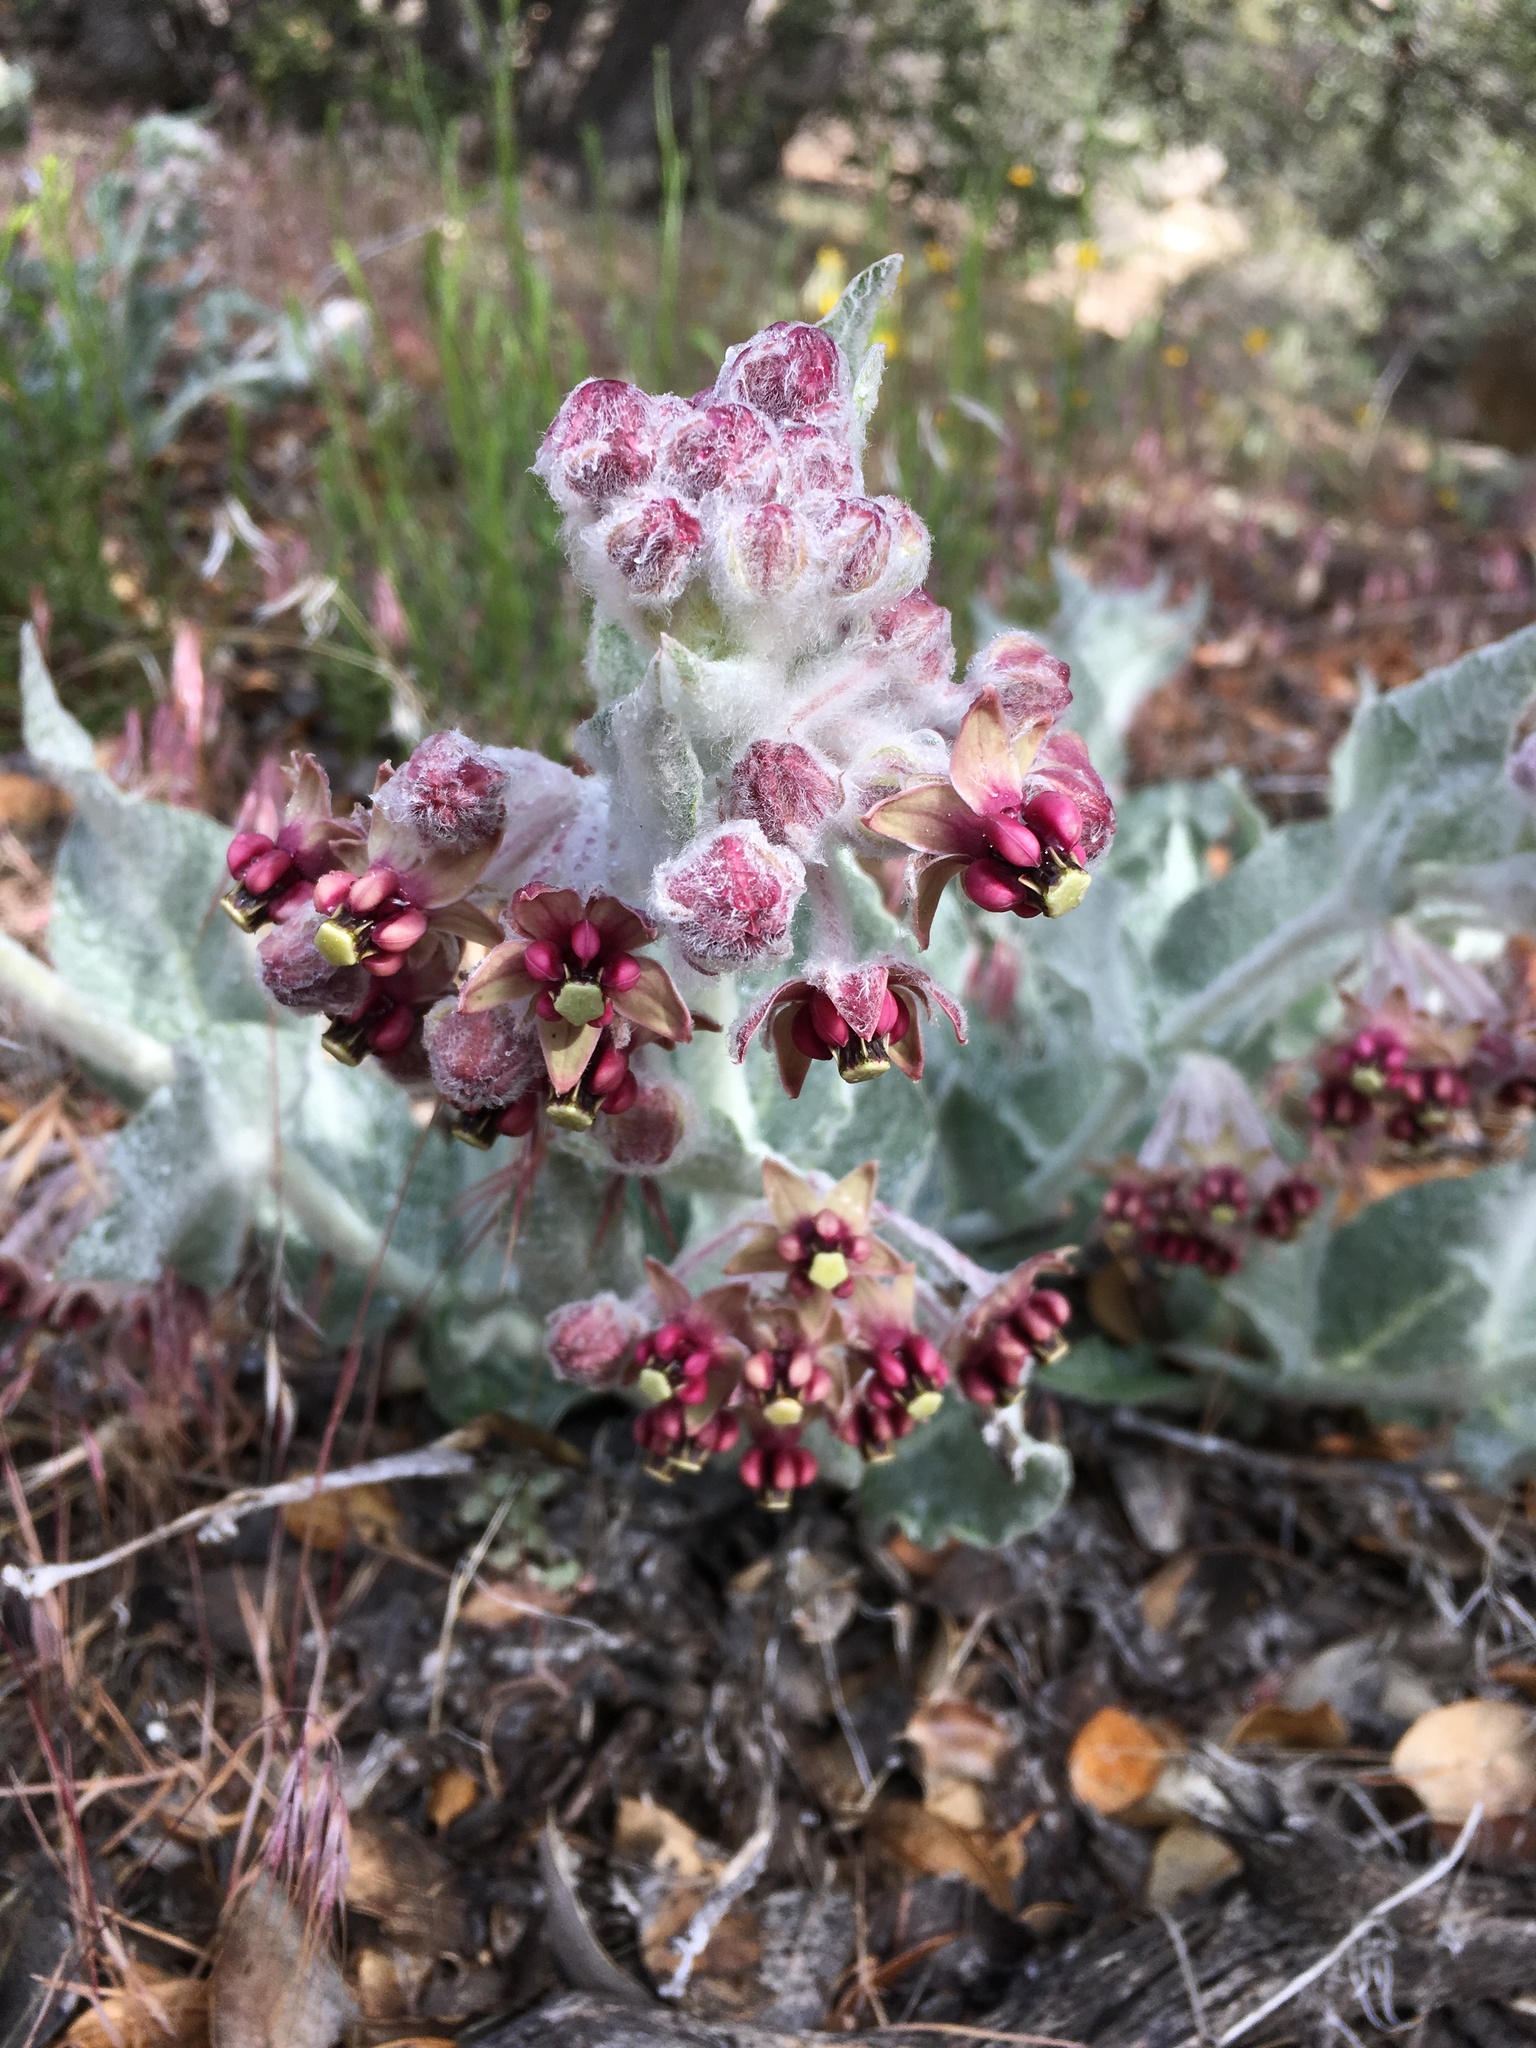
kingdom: Plantae
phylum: Tracheophyta
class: Magnoliopsida
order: Gentianales
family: Apocynaceae
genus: Asclepias
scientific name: Asclepias californica
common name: California milkweed
